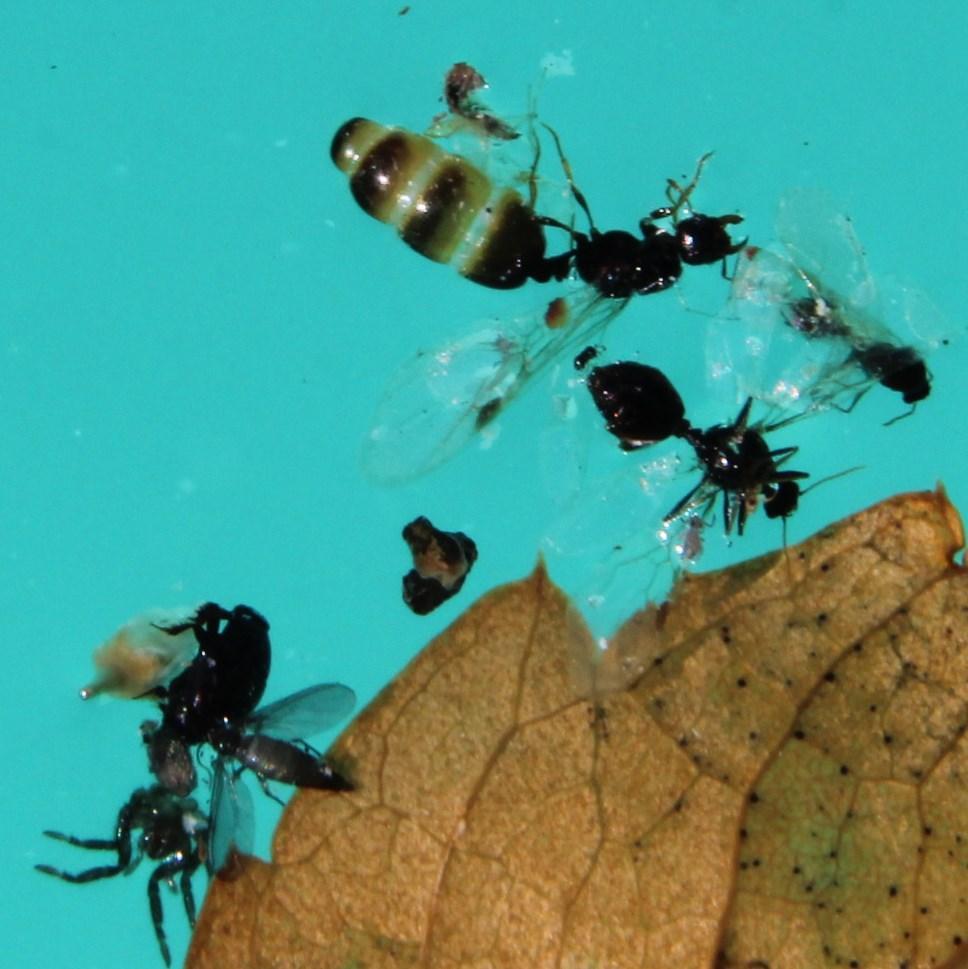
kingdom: Animalia
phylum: Arthropoda
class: Insecta
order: Hymenoptera
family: Formicidae
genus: Tetramorium
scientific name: Tetramorium sericeiventre
